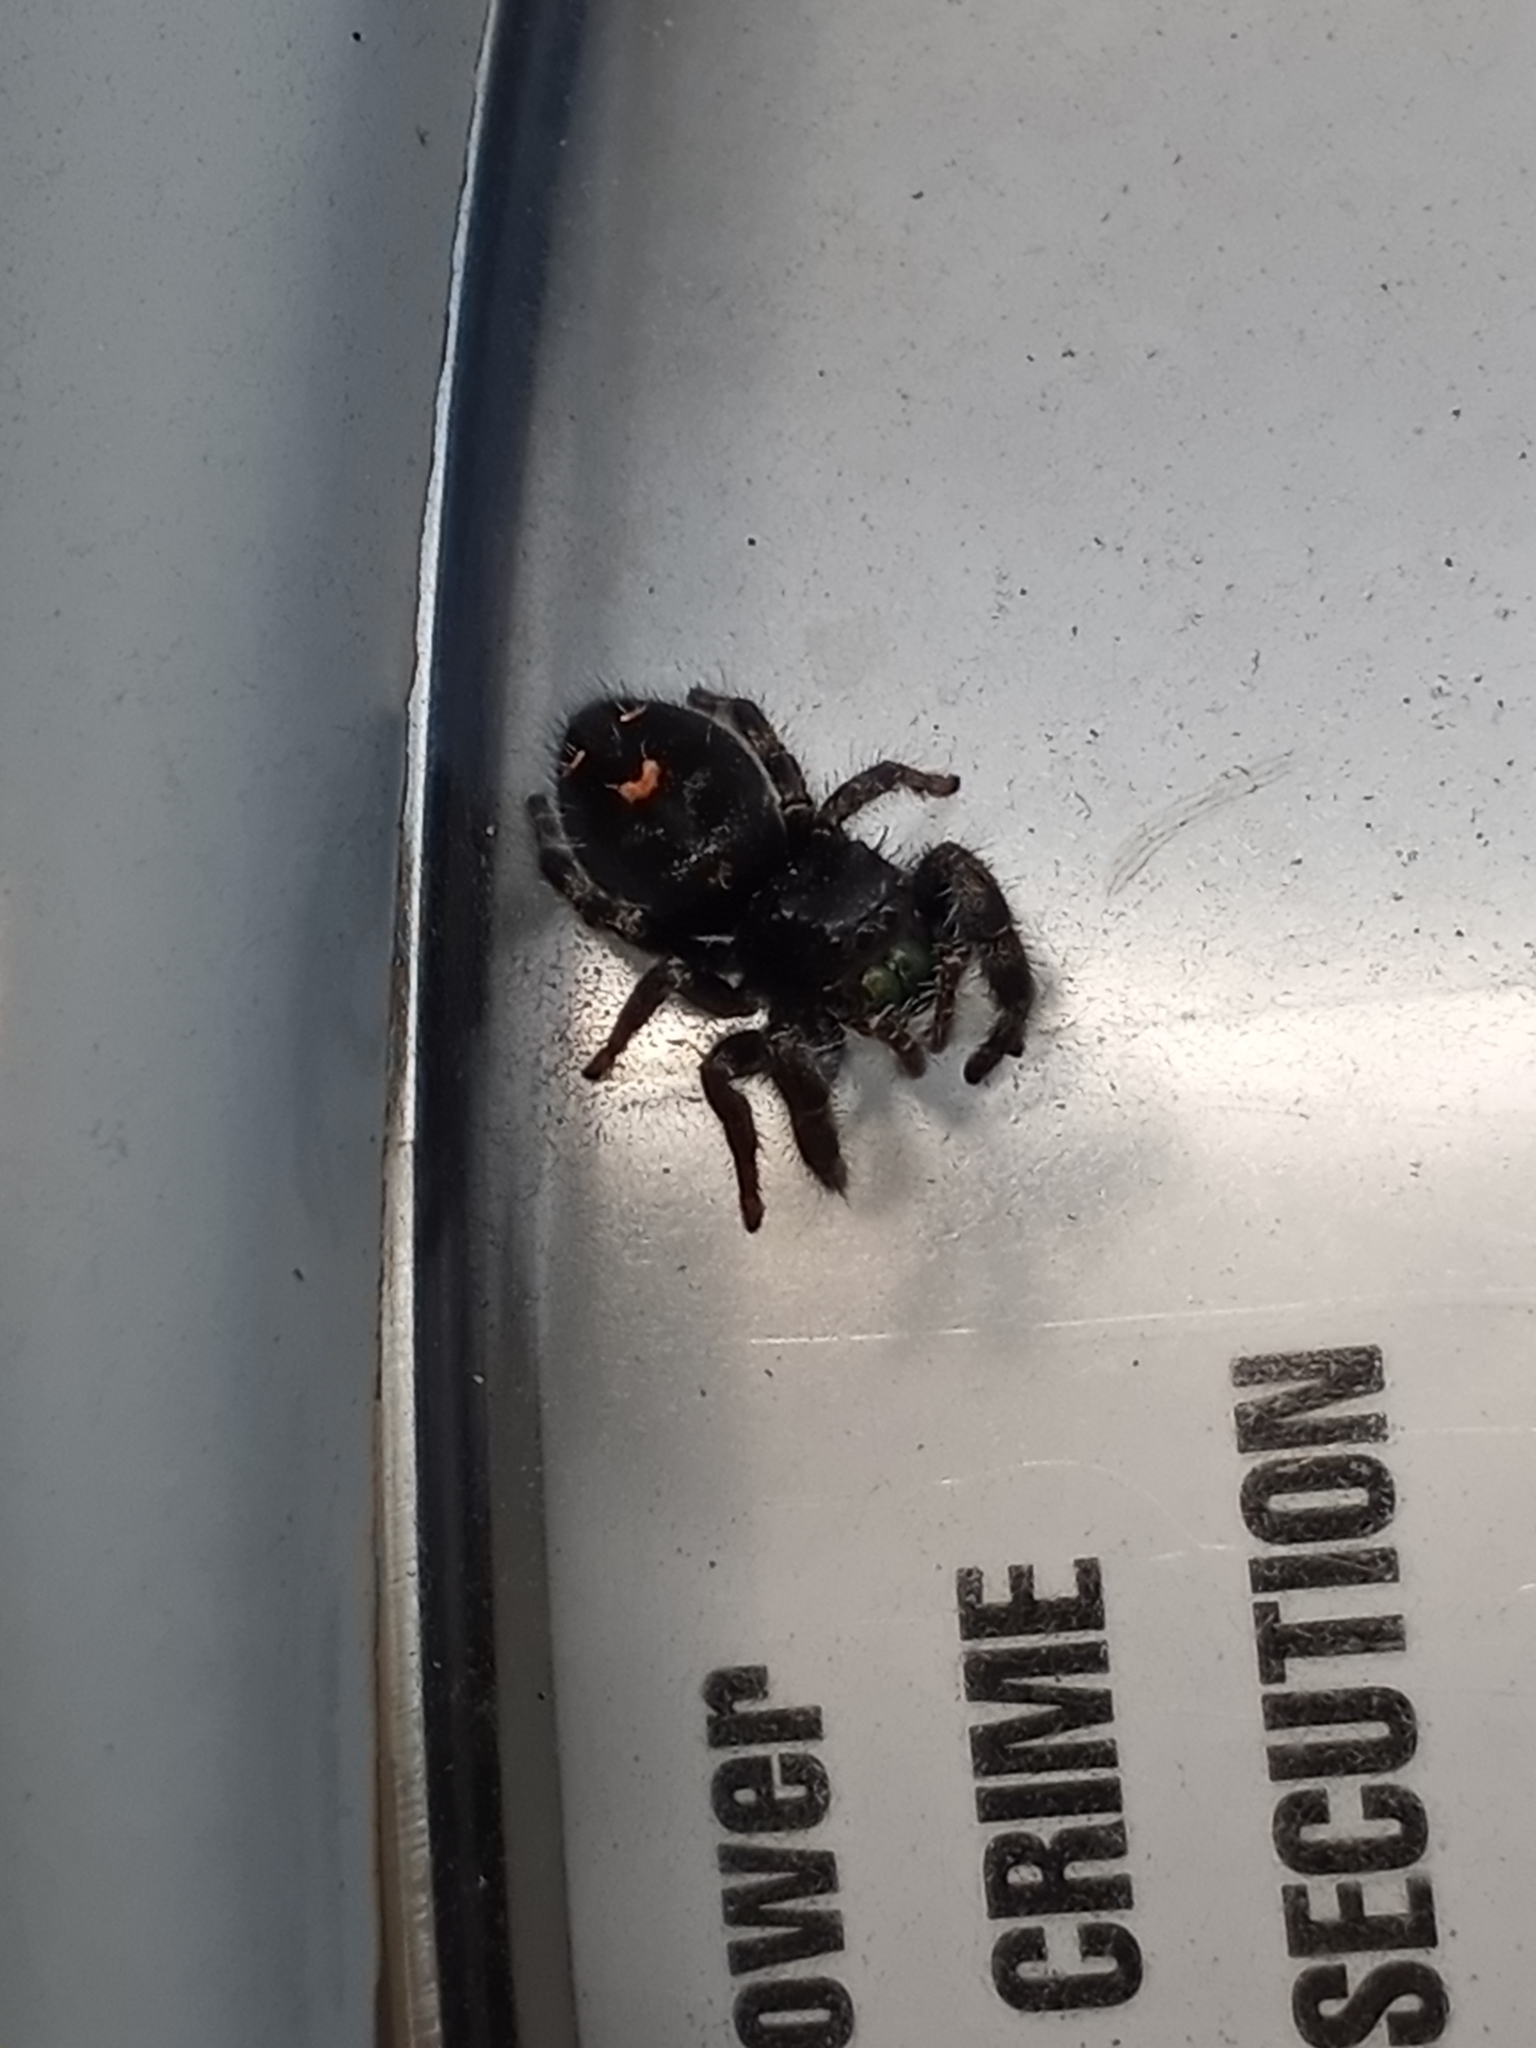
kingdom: Animalia
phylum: Arthropoda
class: Arachnida
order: Araneae
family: Salticidae
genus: Phidippus
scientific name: Phidippus audax
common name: Bold jumper
